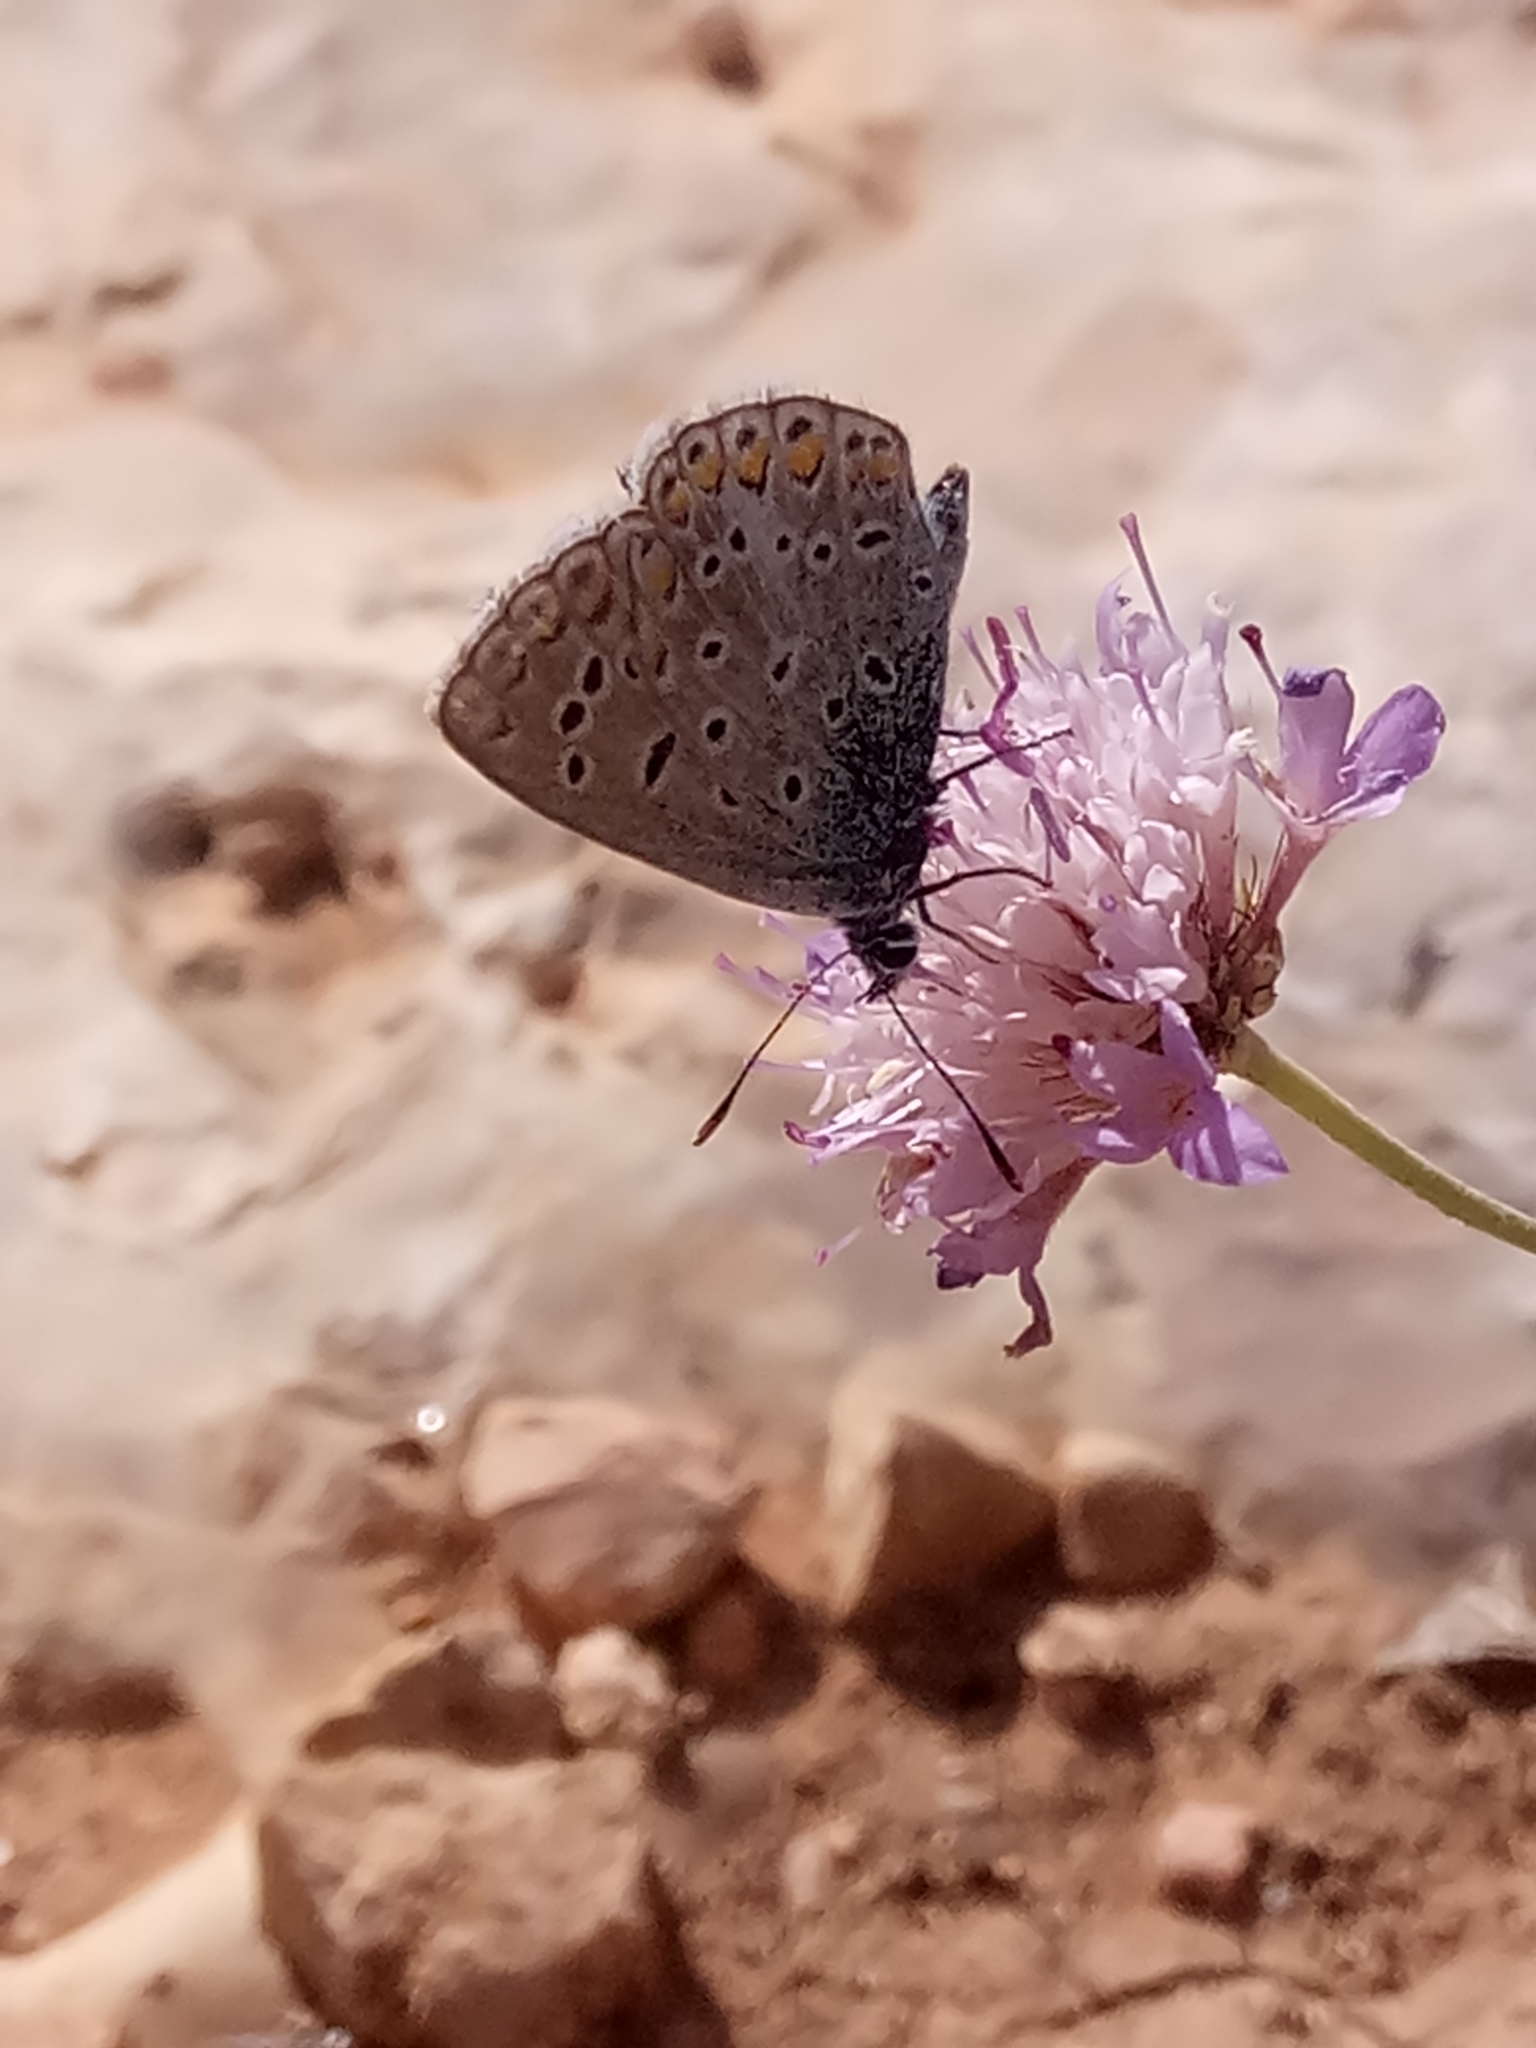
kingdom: Animalia
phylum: Arthropoda
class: Insecta
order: Lepidoptera
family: Lycaenidae
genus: Polyommatus
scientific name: Polyommatus celina
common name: Austaut's blue
